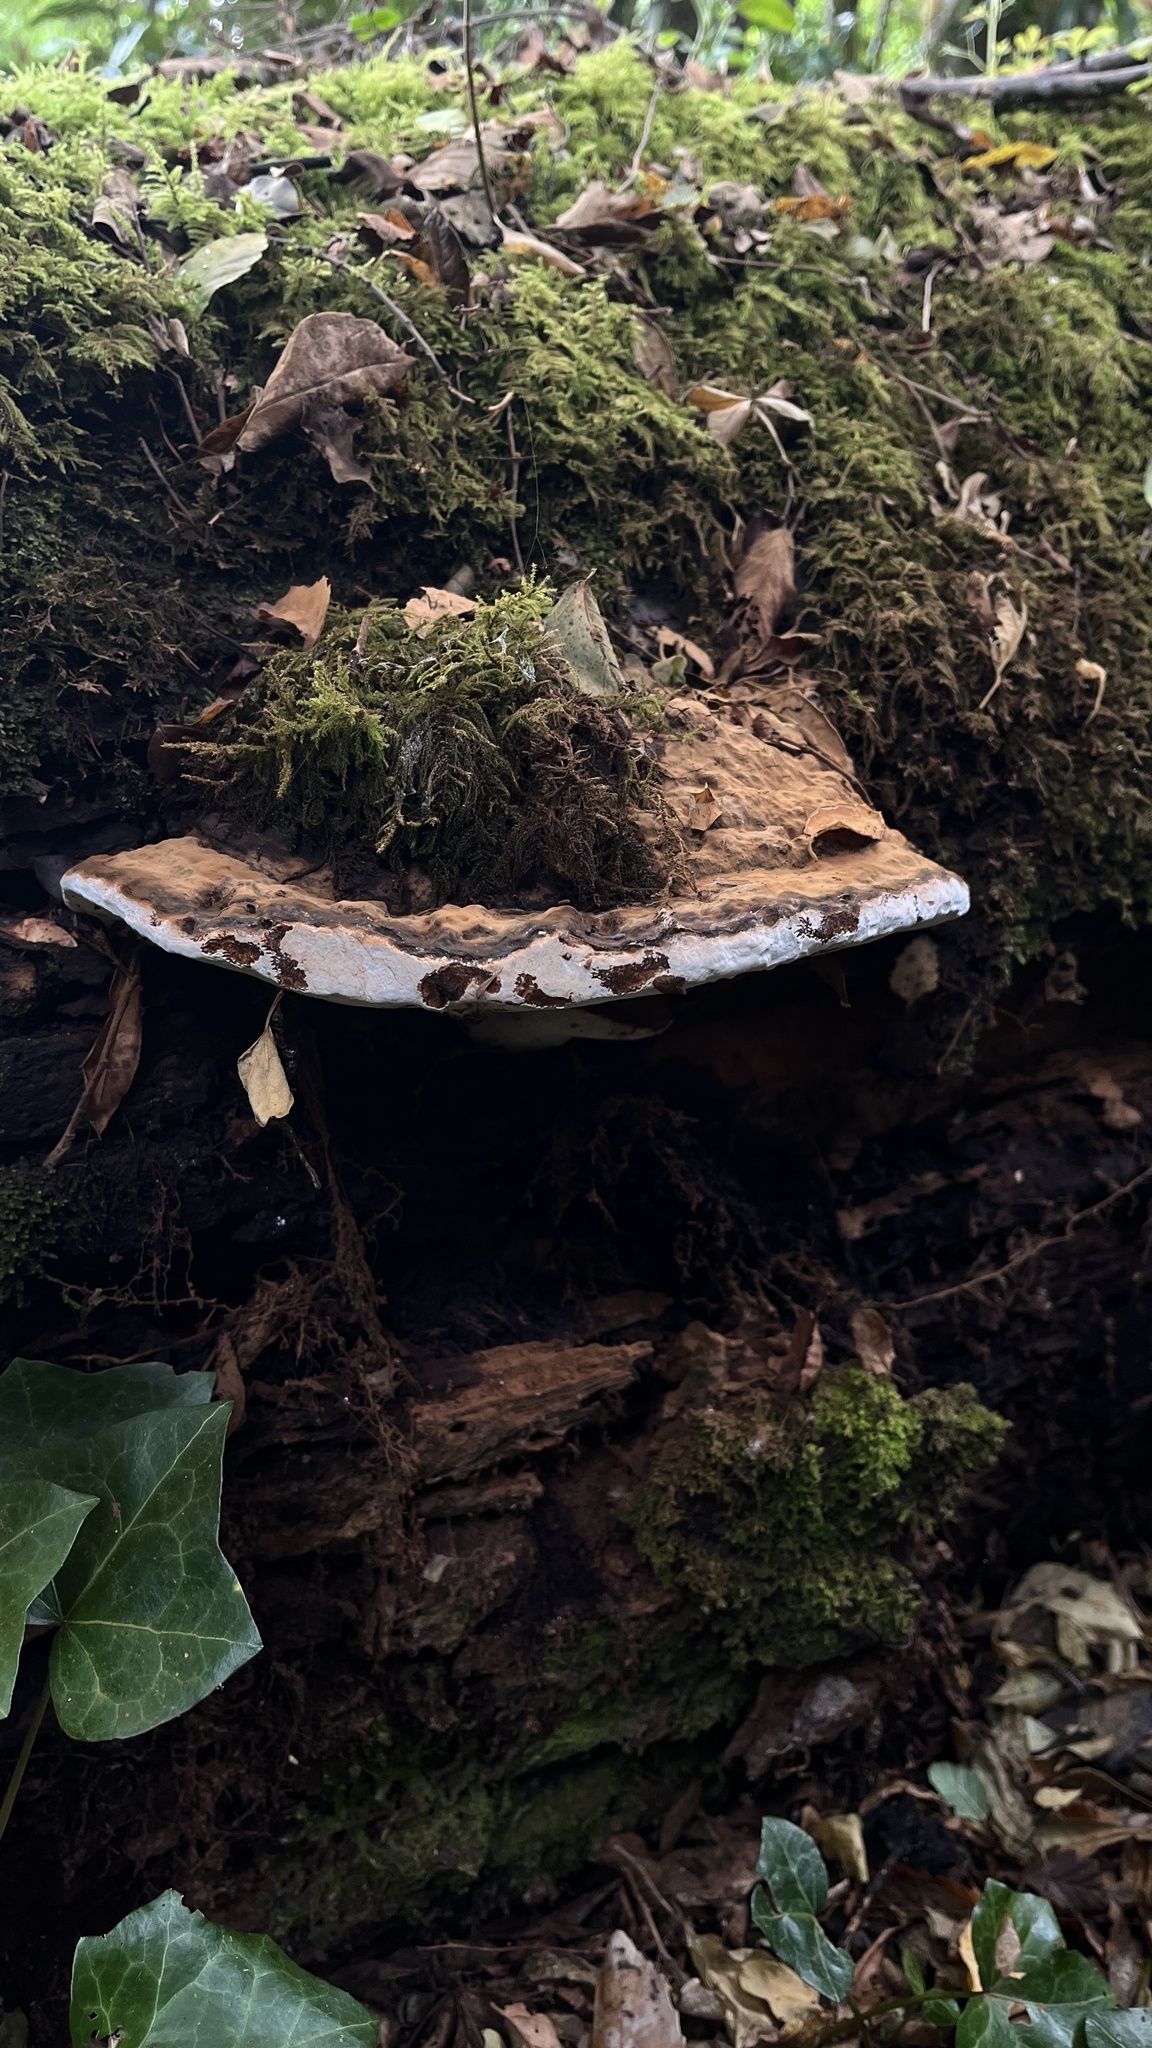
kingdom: Fungi
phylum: Basidiomycota
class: Agaricomycetes
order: Polyporales
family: Polyporaceae
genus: Ganoderma
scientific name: Ganoderma australe
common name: Southern bracket
